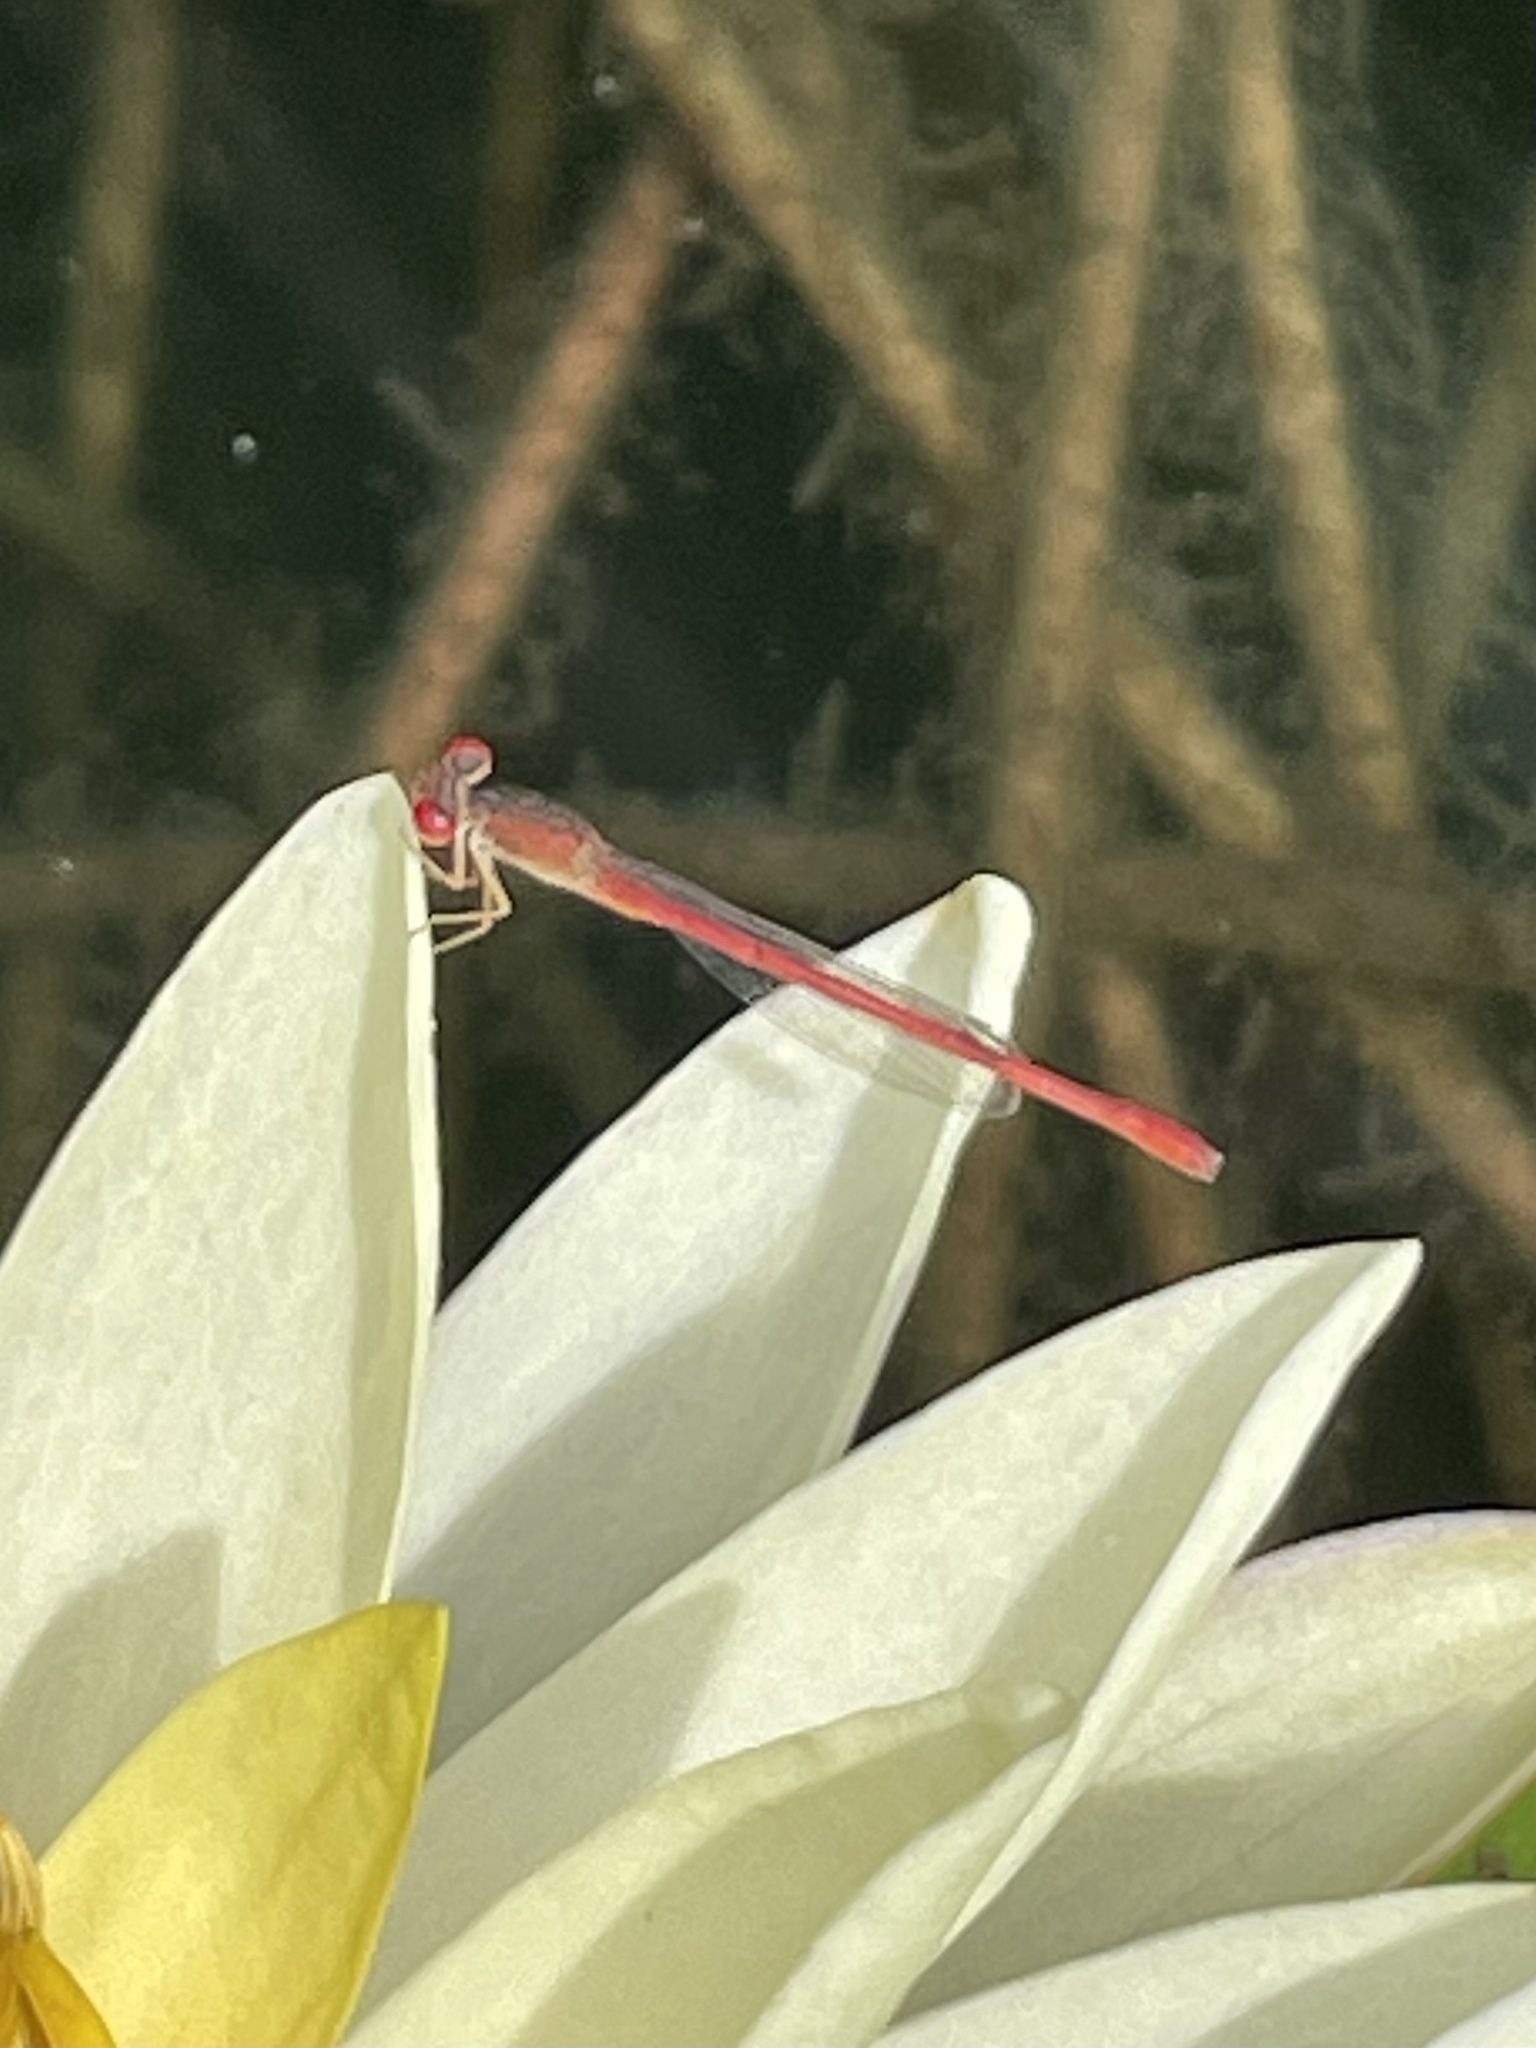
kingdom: Animalia
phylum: Arthropoda
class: Insecta
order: Odonata
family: Coenagrionidae
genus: Telebasis
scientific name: Telebasis salva
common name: Desert firetail
